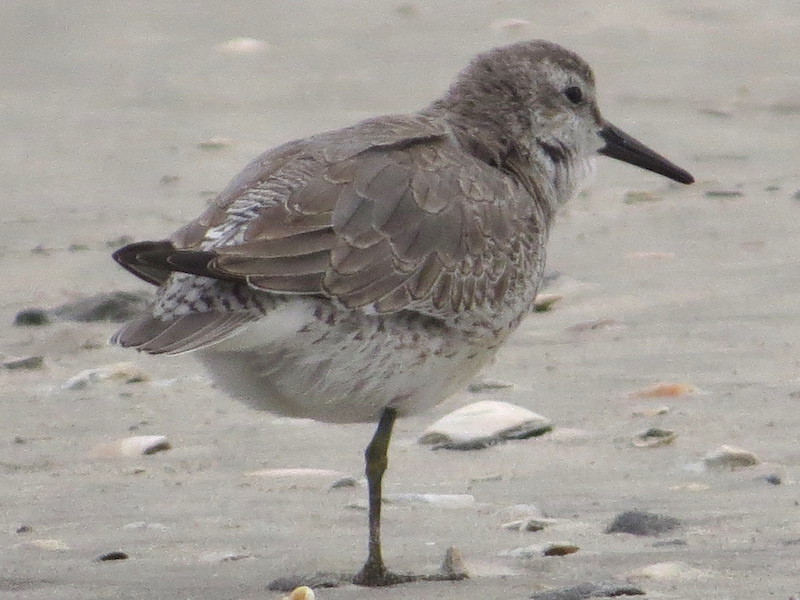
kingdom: Animalia
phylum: Chordata
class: Aves
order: Charadriiformes
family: Scolopacidae
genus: Calidris
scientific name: Calidris canutus
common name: Red knot
